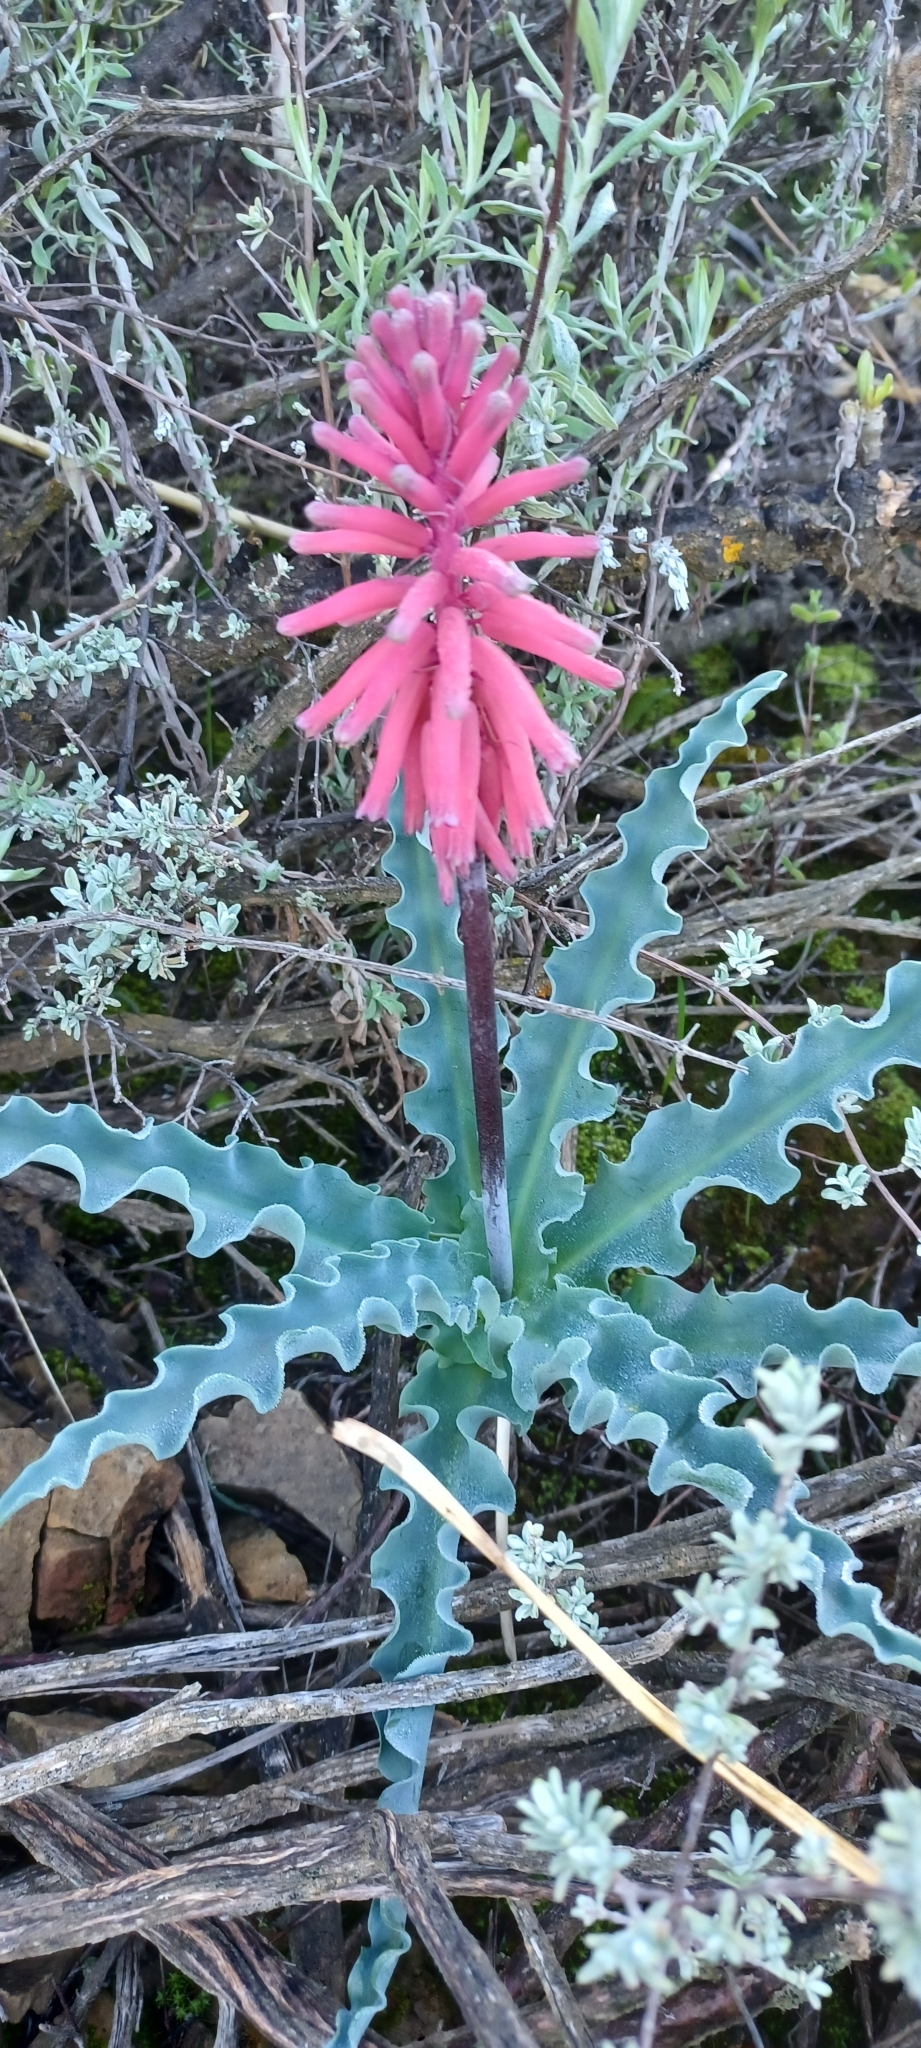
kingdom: Plantae
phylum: Tracheophyta
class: Liliopsida
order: Asparagales
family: Asparagaceae
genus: Veltheimia
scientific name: Veltheimia capensis
